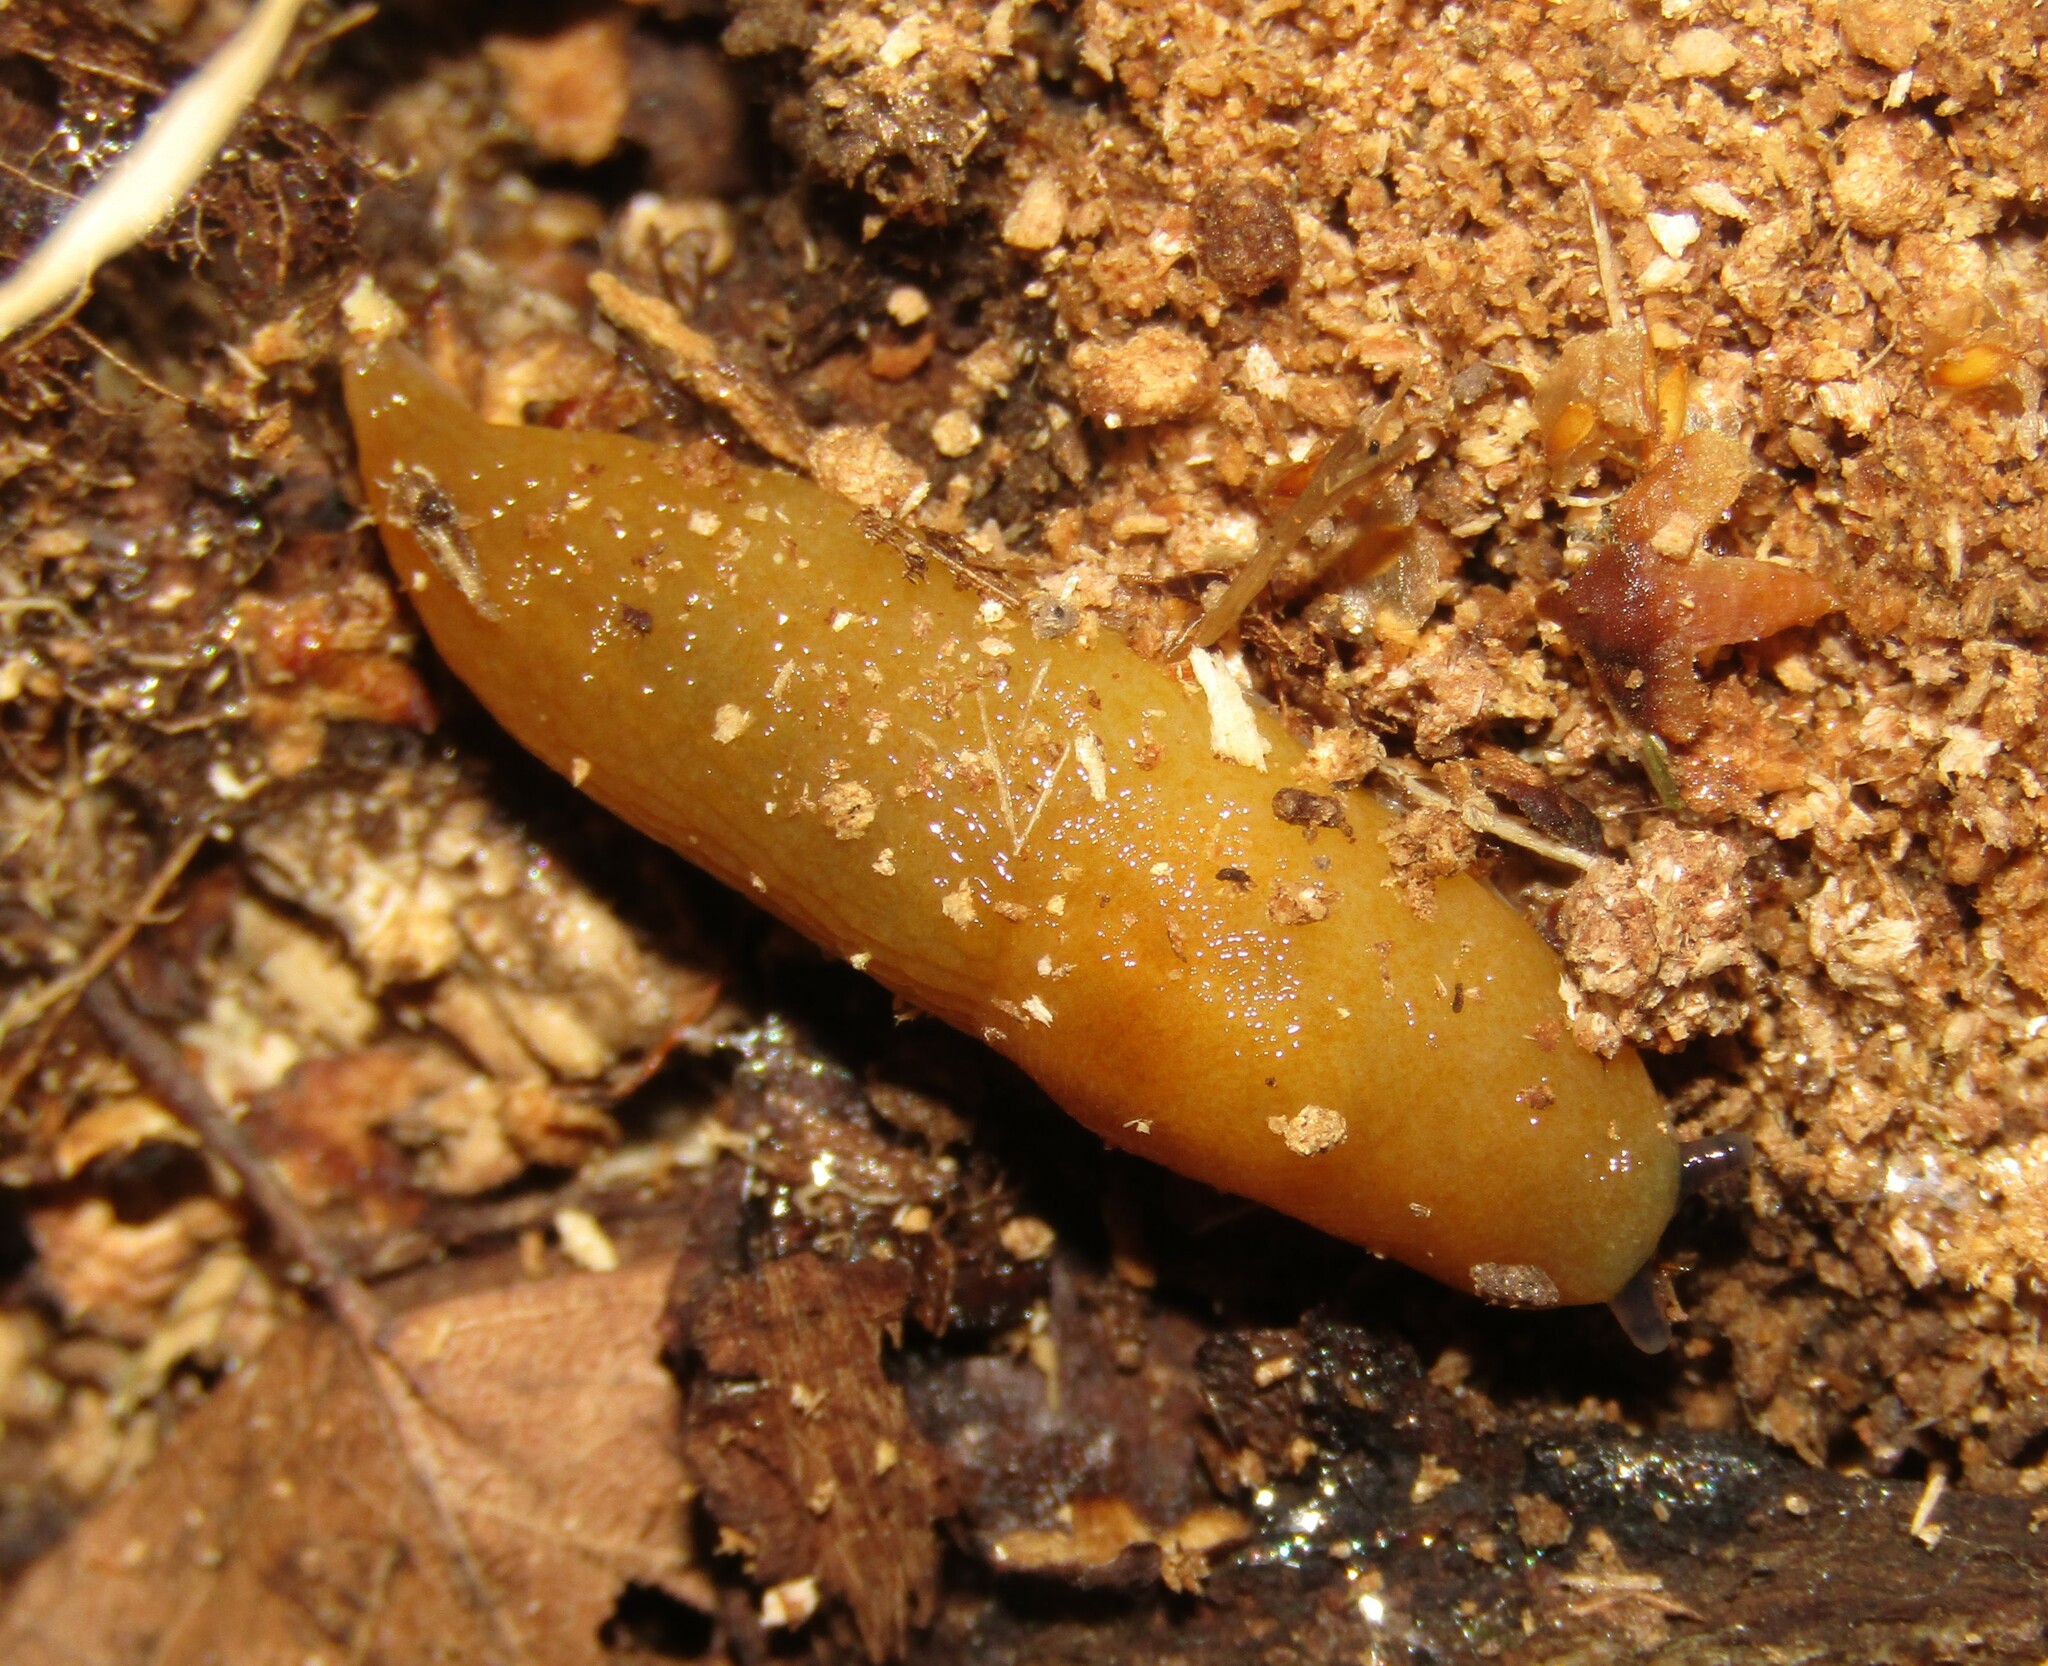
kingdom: Animalia
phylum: Mollusca
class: Gastropoda
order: Stylommatophora
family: Limacidae
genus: Malacolimax
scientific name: Malacolimax tenellus
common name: Lemon slug
